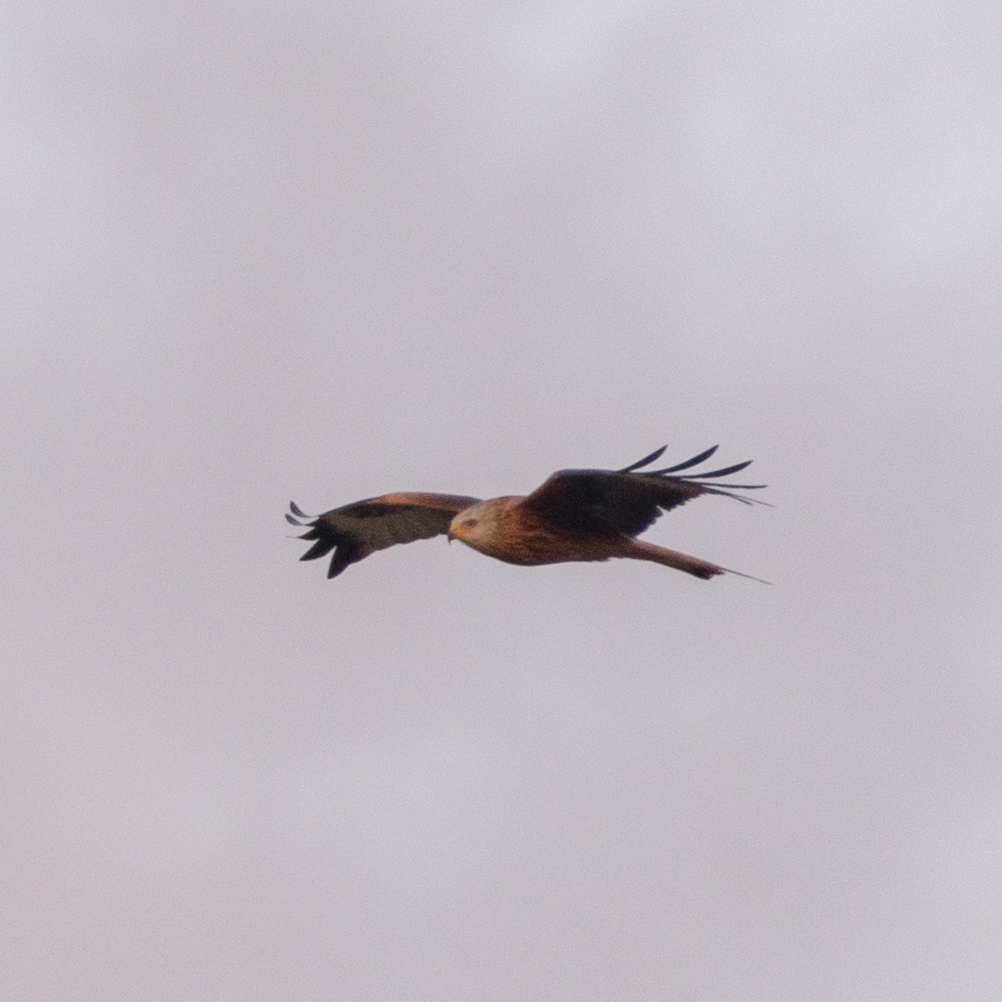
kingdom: Animalia
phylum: Chordata
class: Aves
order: Accipitriformes
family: Accipitridae
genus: Milvus
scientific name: Milvus milvus
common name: Red kite
